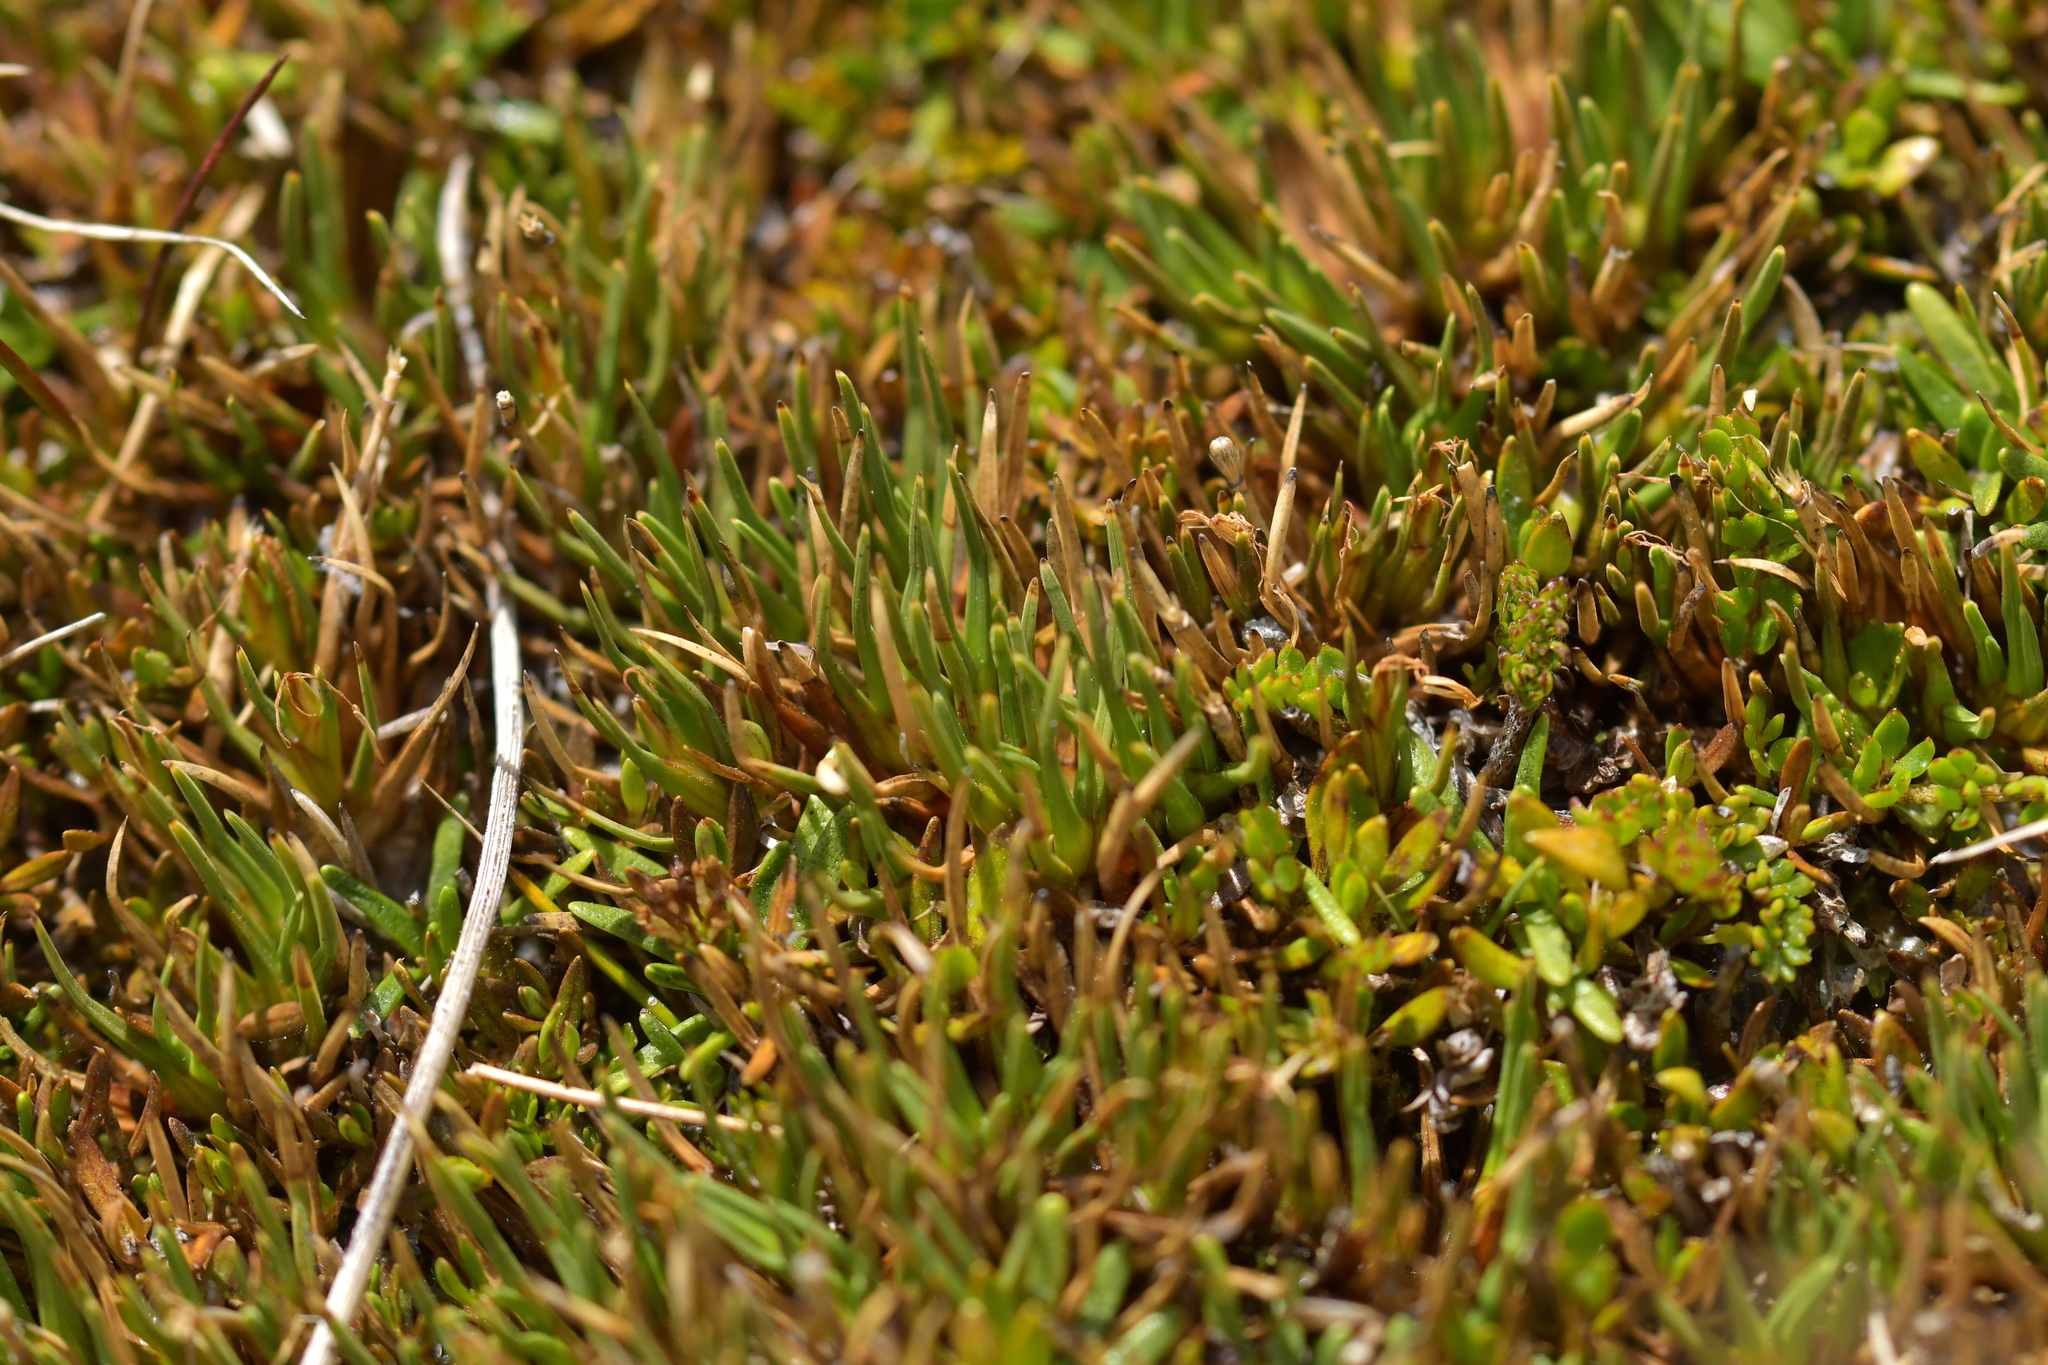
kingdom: Plantae
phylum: Tracheophyta
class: Liliopsida
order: Poales
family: Cyperaceae
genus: Oreobolus
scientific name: Oreobolus pectinatus
